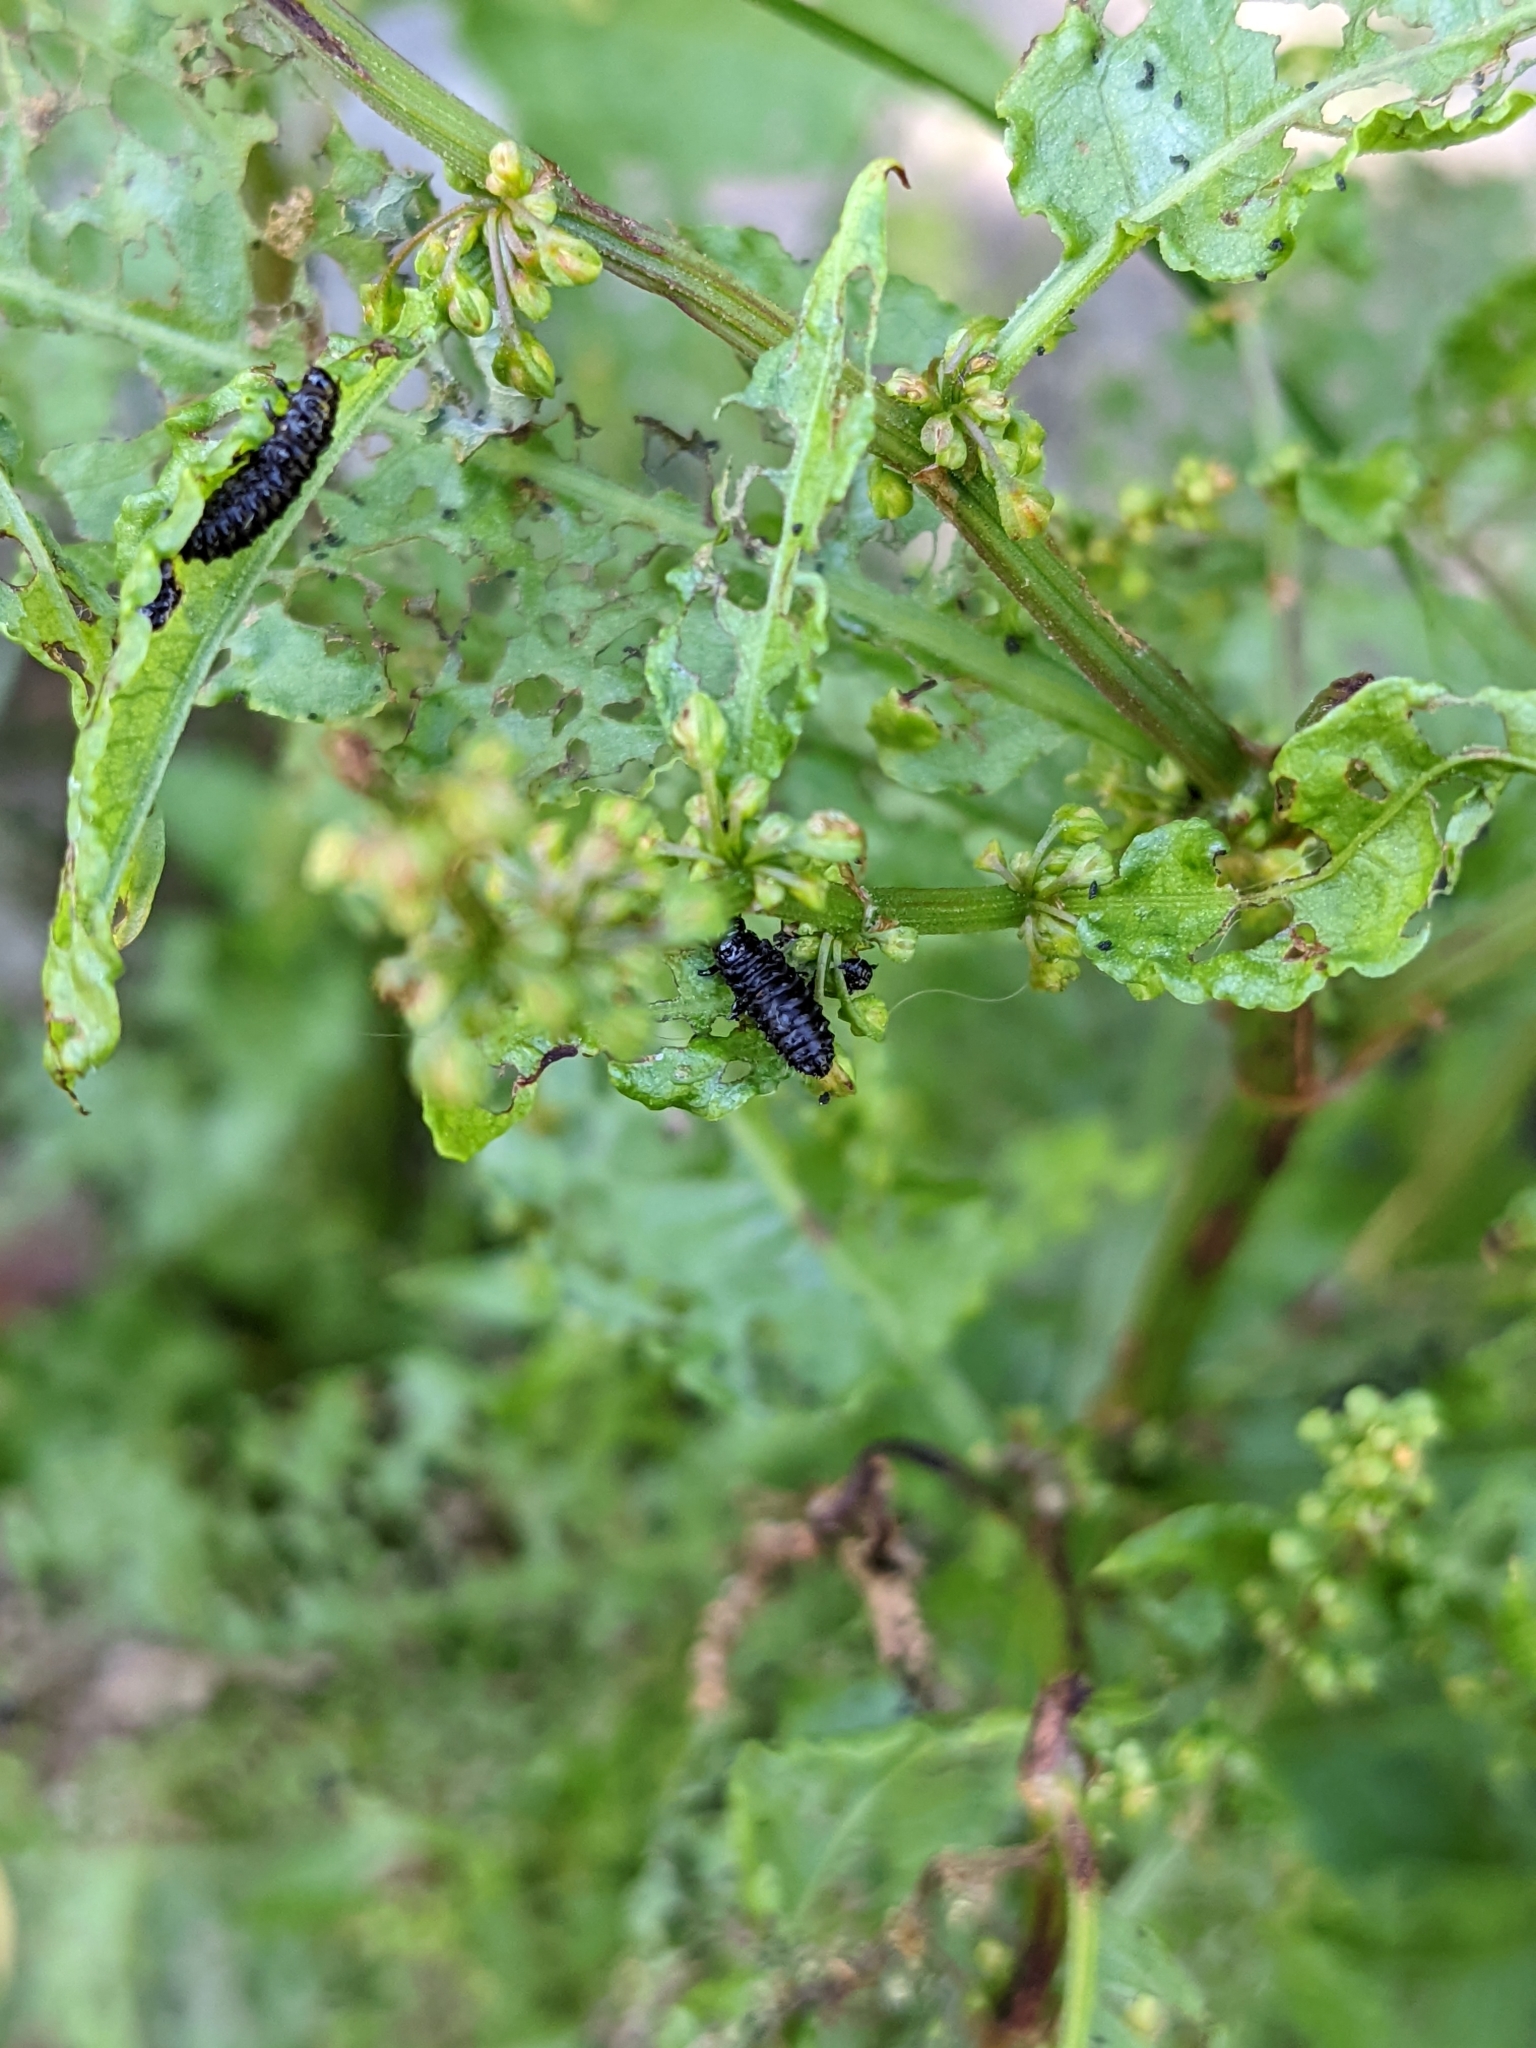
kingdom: Animalia
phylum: Arthropoda
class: Insecta
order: Coleoptera
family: Chrysomelidae
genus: Gastrophysa
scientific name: Gastrophysa viridula
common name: Green dock beetle
